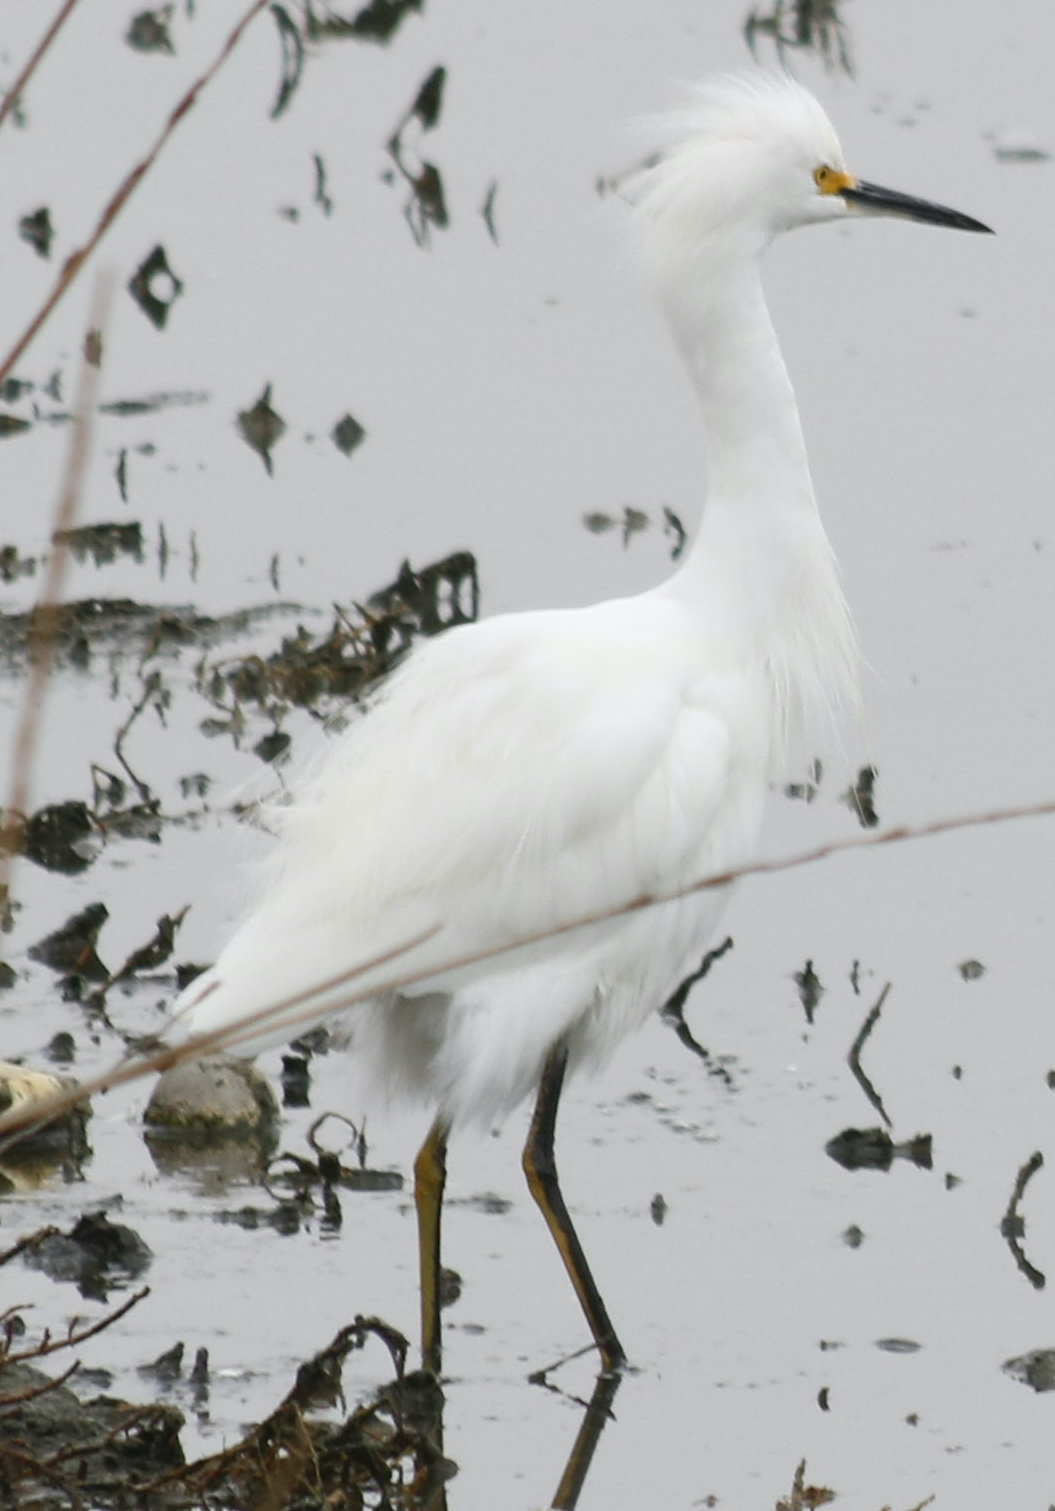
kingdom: Animalia
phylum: Chordata
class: Aves
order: Pelecaniformes
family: Ardeidae
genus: Egretta
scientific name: Egretta thula
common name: Snowy egret
